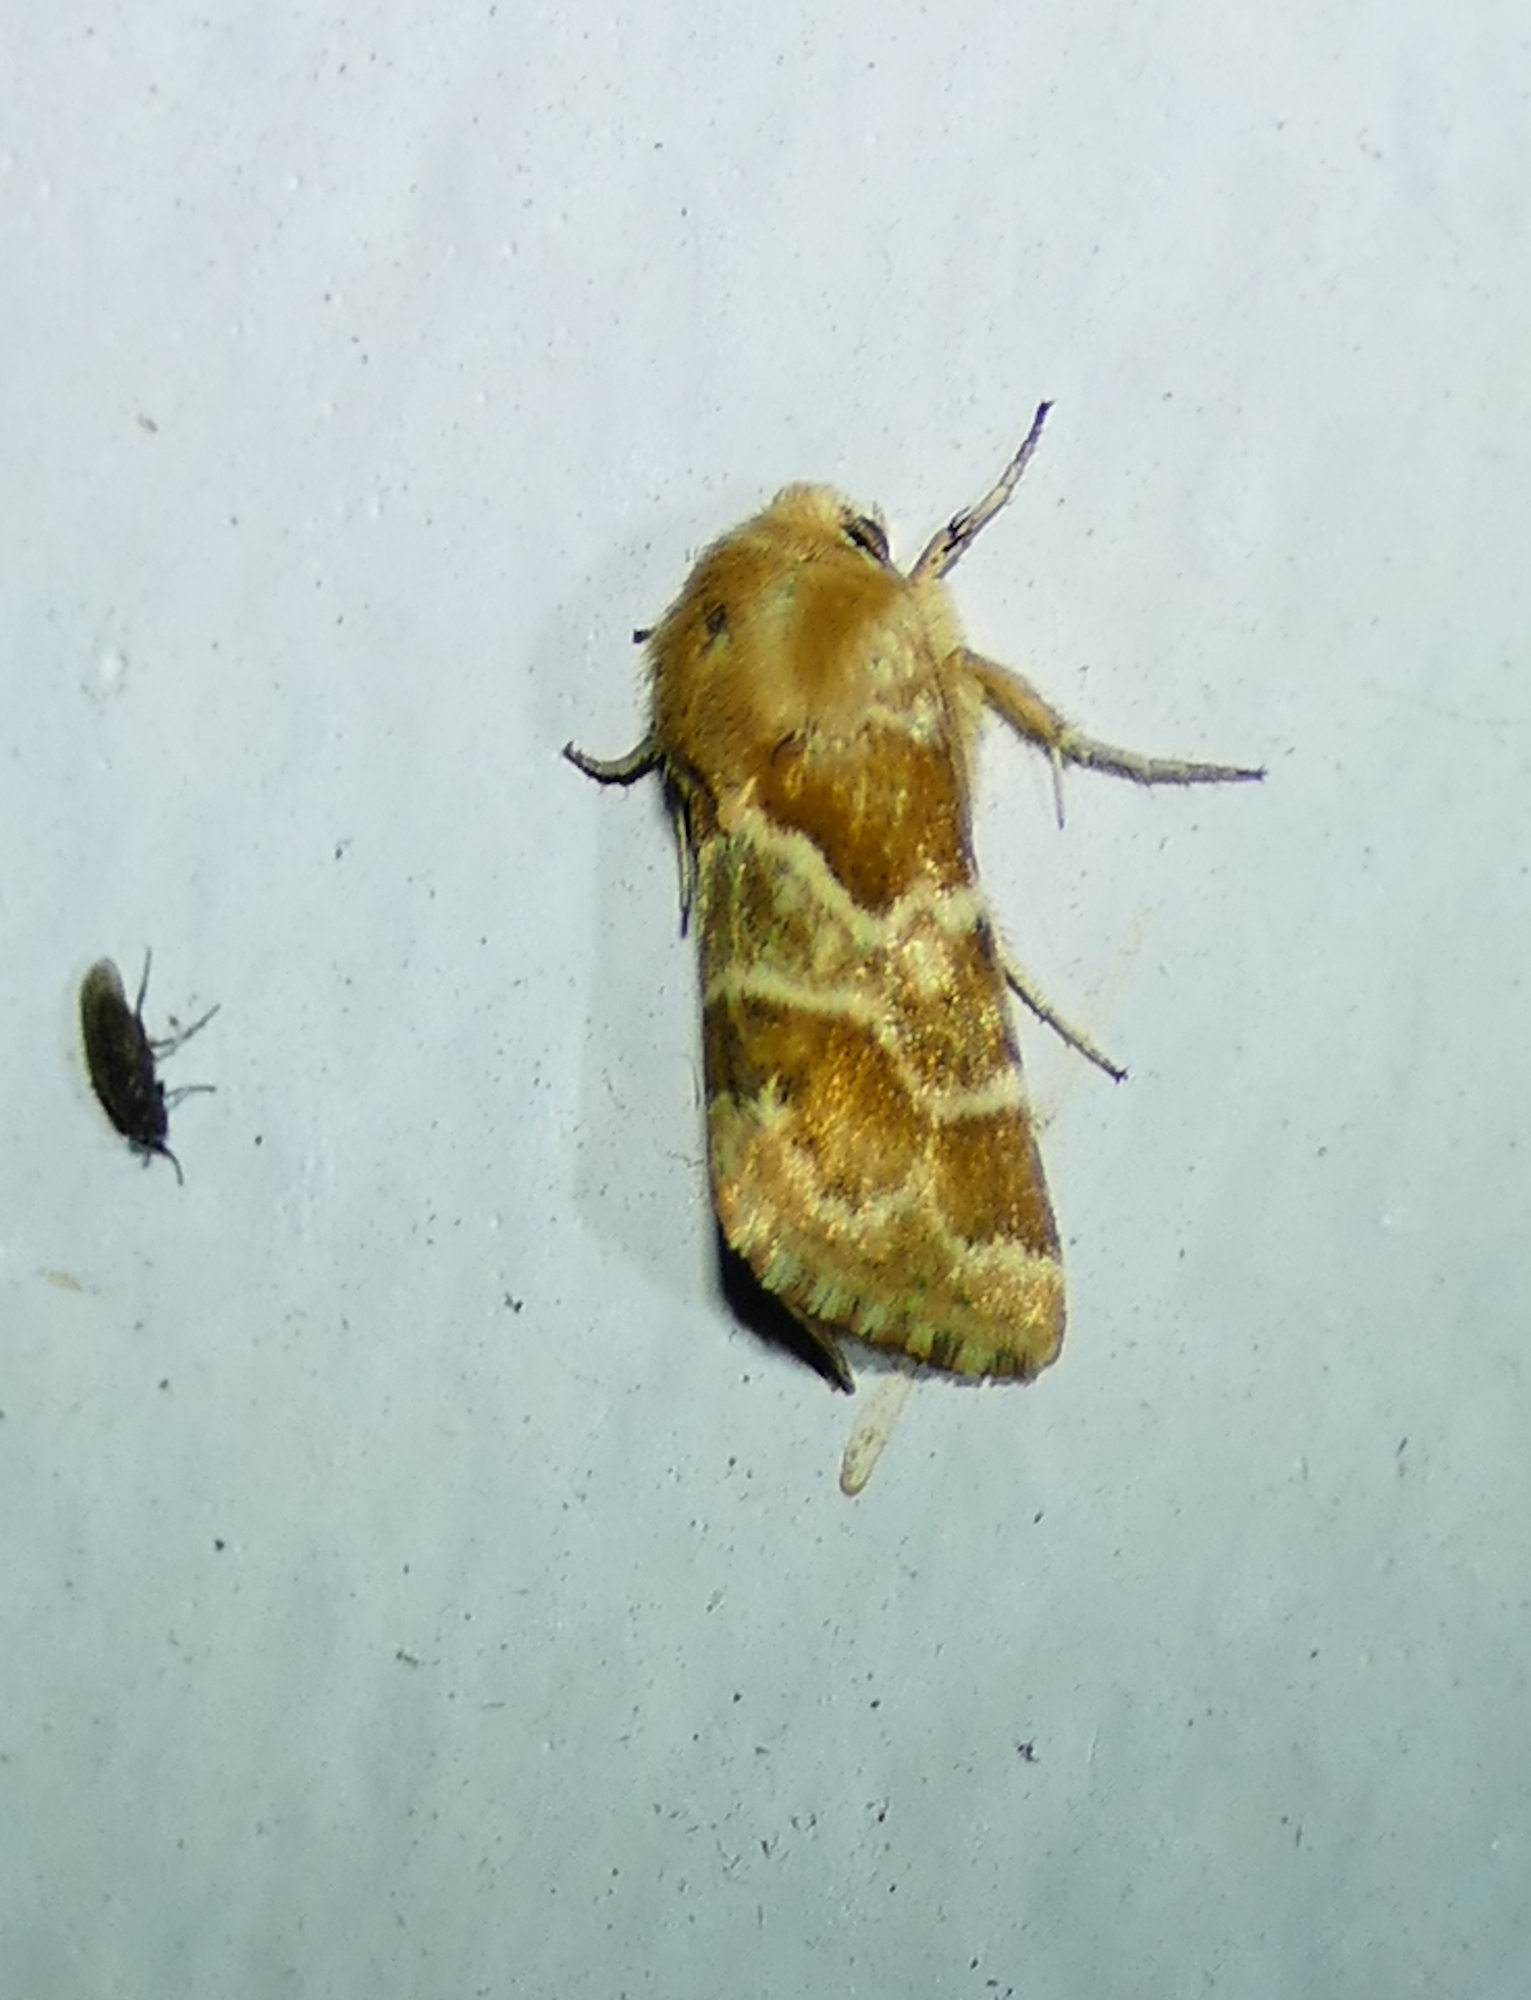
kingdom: Animalia
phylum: Arthropoda
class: Insecta
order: Lepidoptera
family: Noctuidae
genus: Schinia
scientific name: Schinia errans
